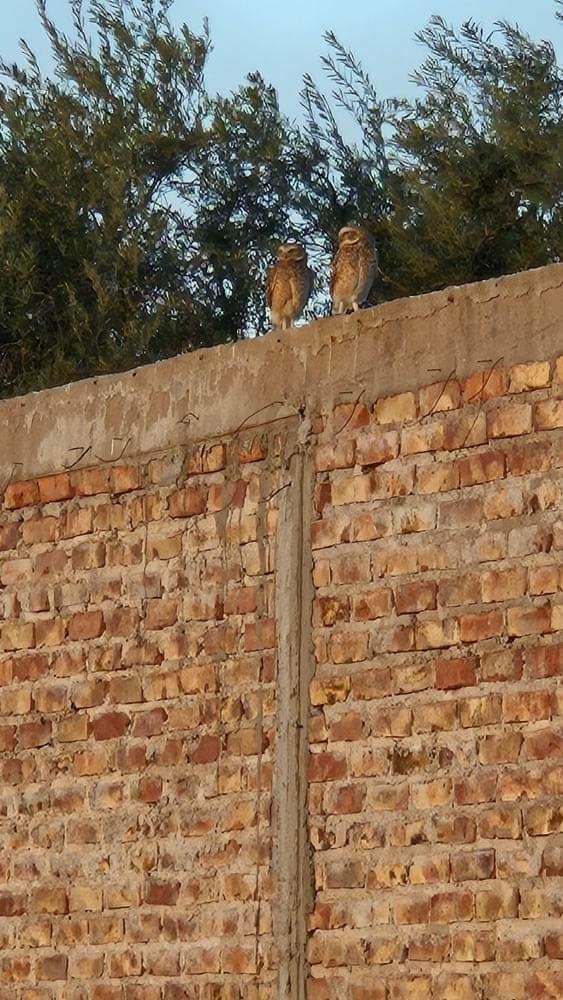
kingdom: Animalia
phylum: Chordata
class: Aves
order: Strigiformes
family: Strigidae
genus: Athene
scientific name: Athene cunicularia
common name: Burrowing owl
